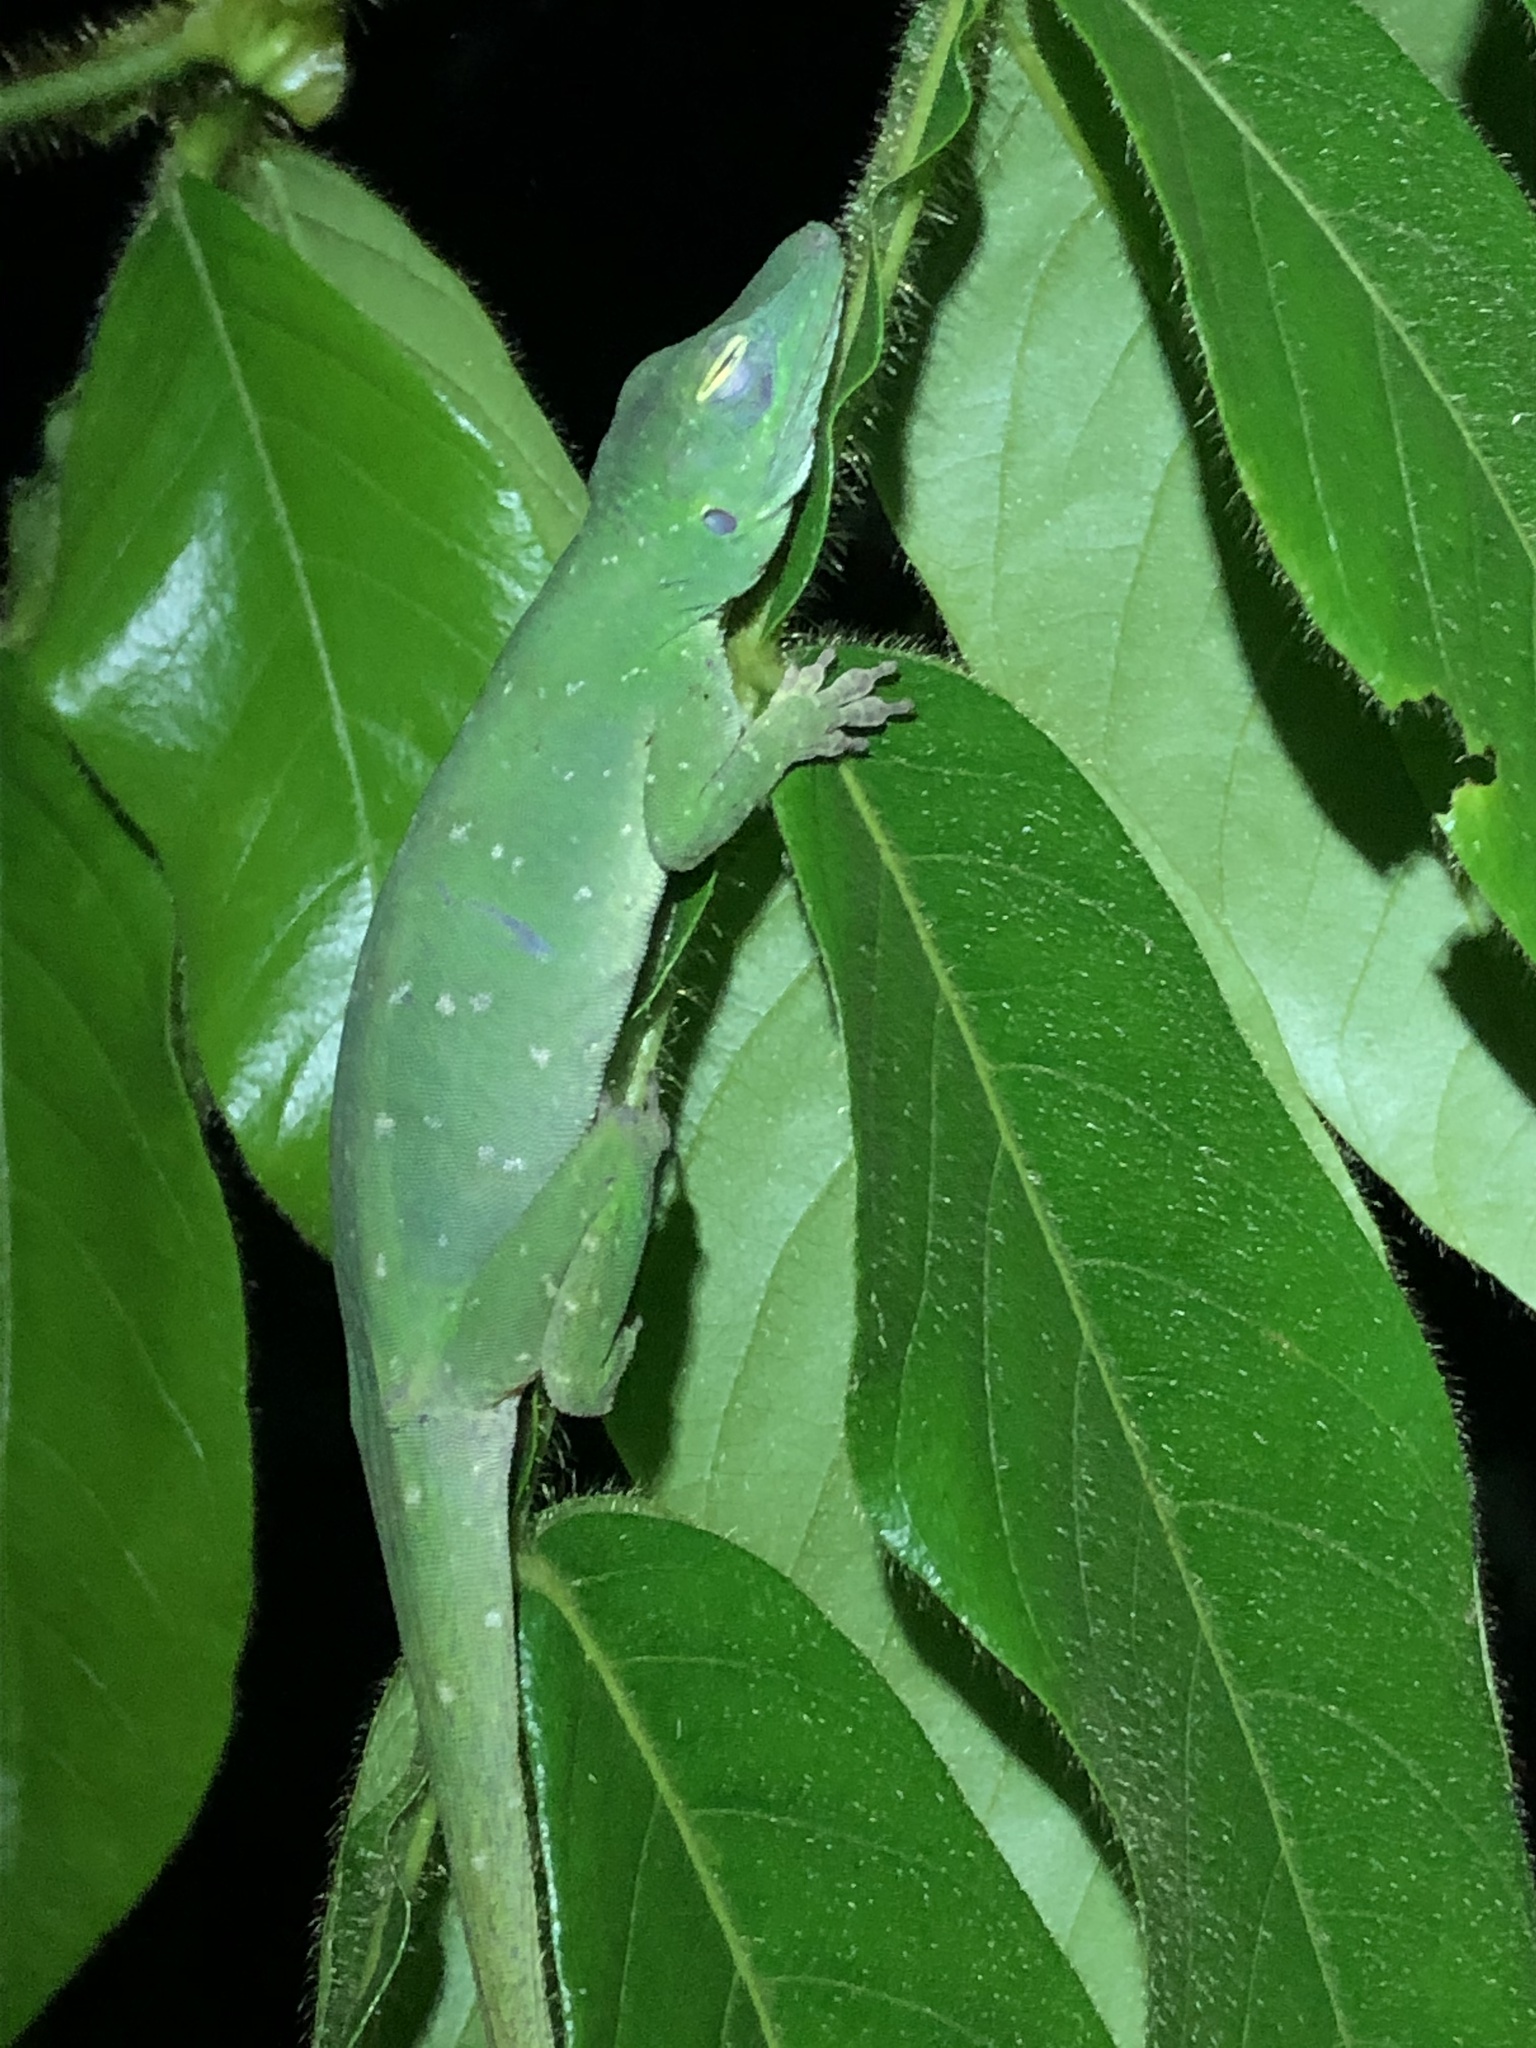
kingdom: Animalia
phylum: Chordata
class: Squamata
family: Dactyloidae
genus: Anolis
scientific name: Anolis punctatus
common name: Amazon green anole
